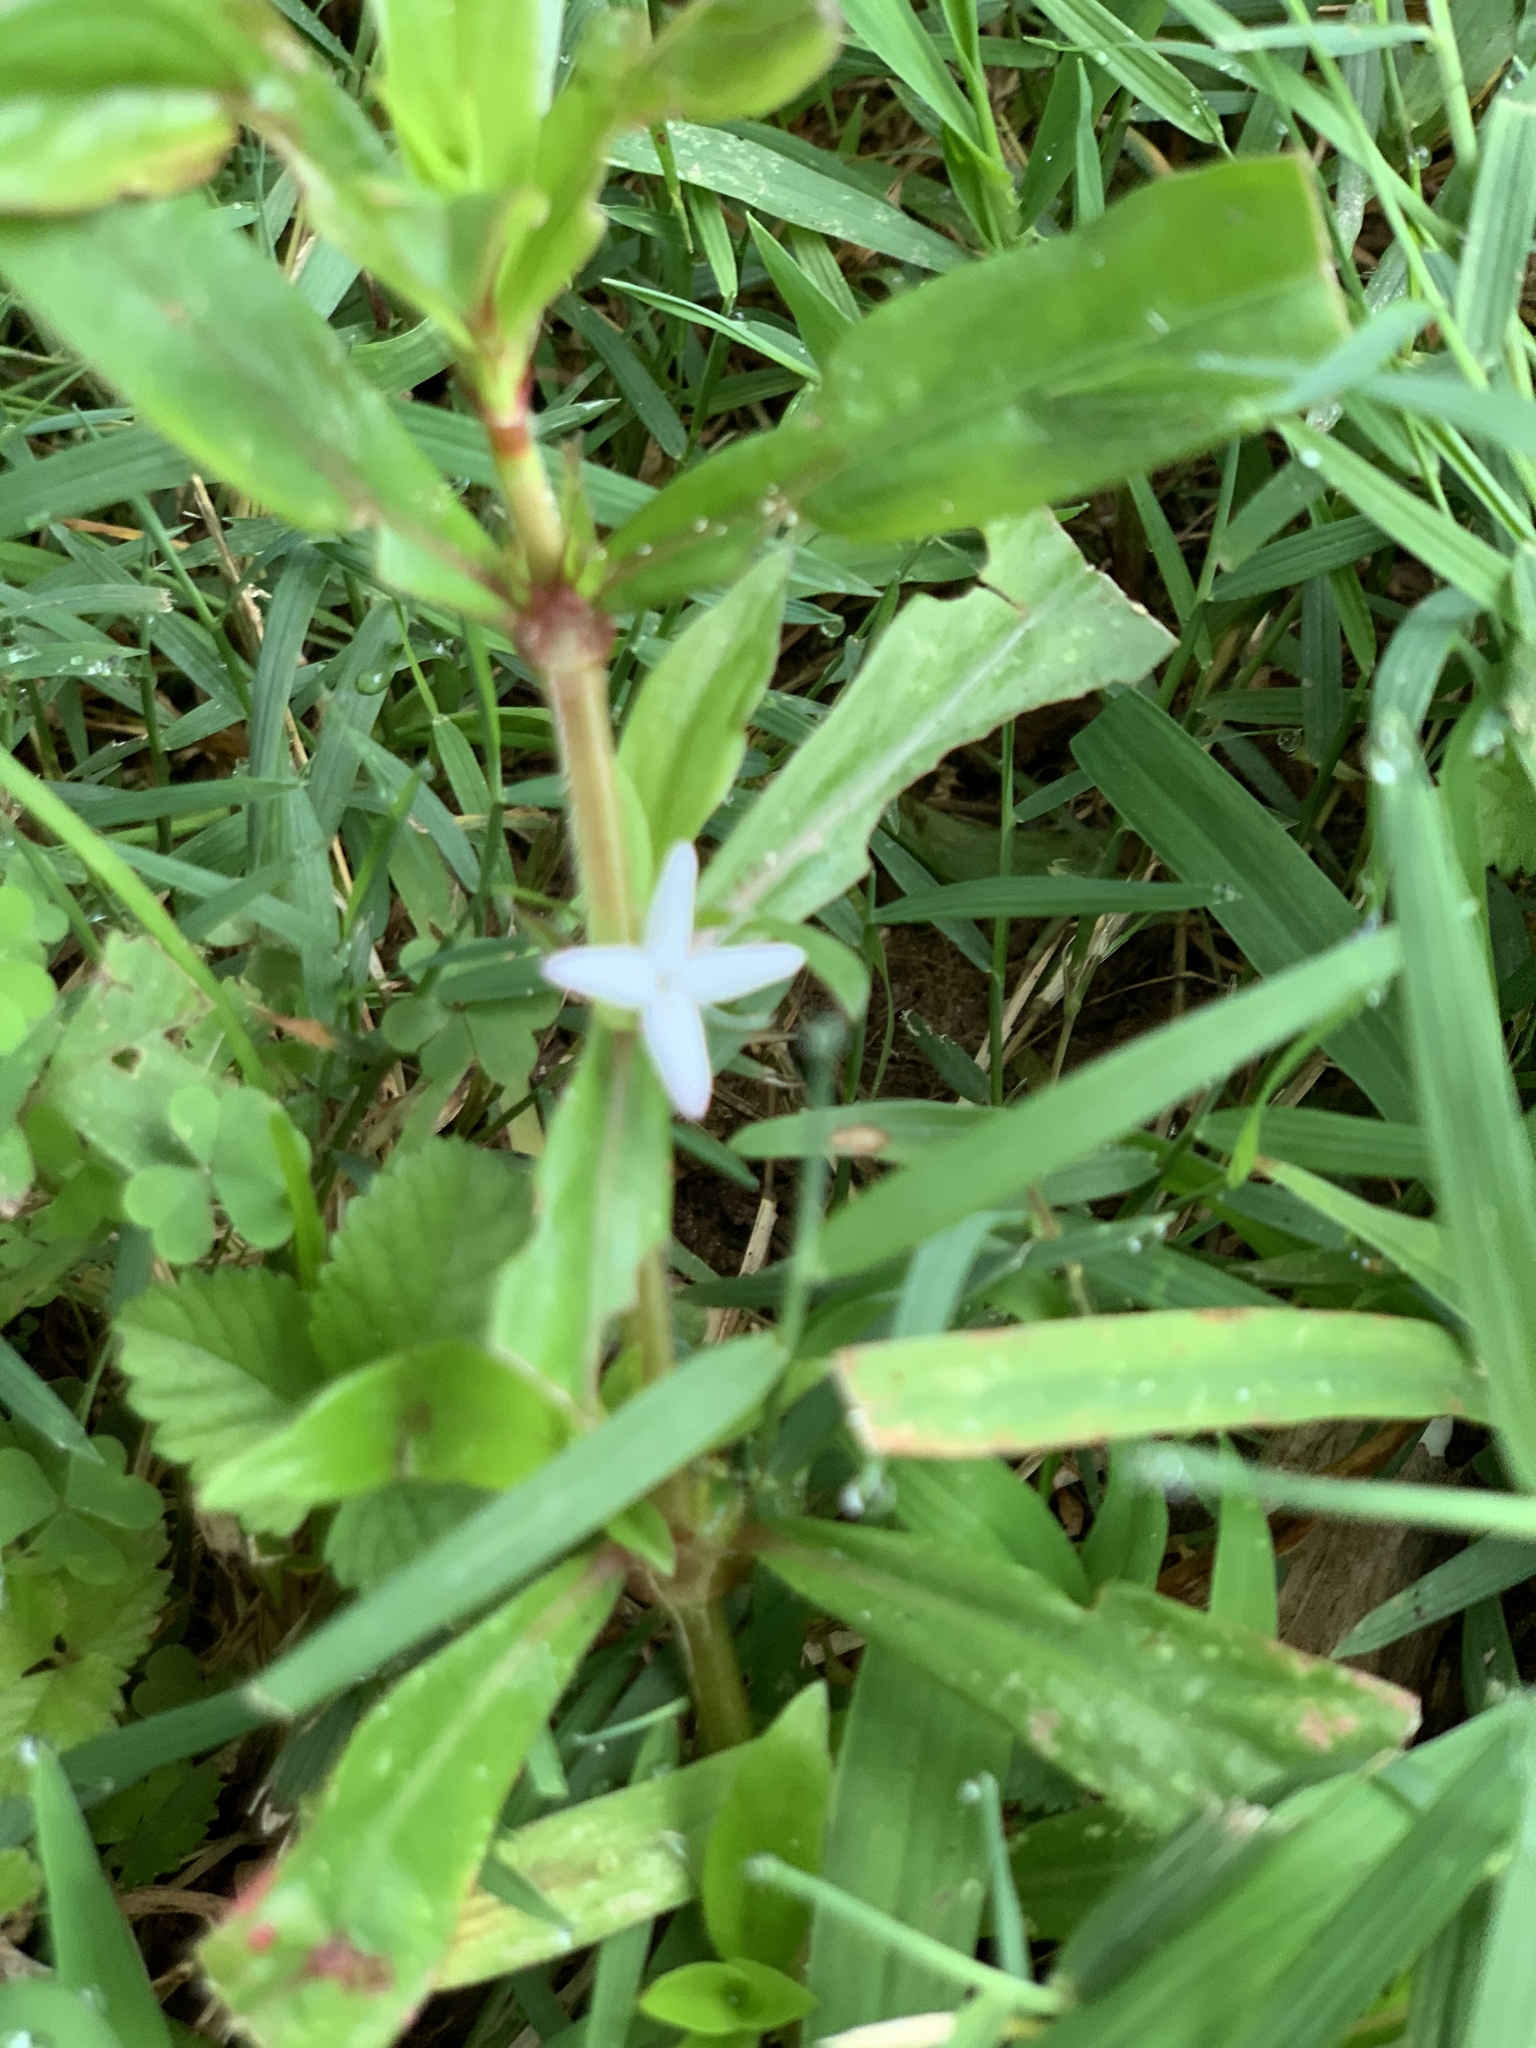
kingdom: Plantae
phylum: Tracheophyta
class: Magnoliopsida
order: Gentianales
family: Rubiaceae
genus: Diodia
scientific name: Diodia virginiana
